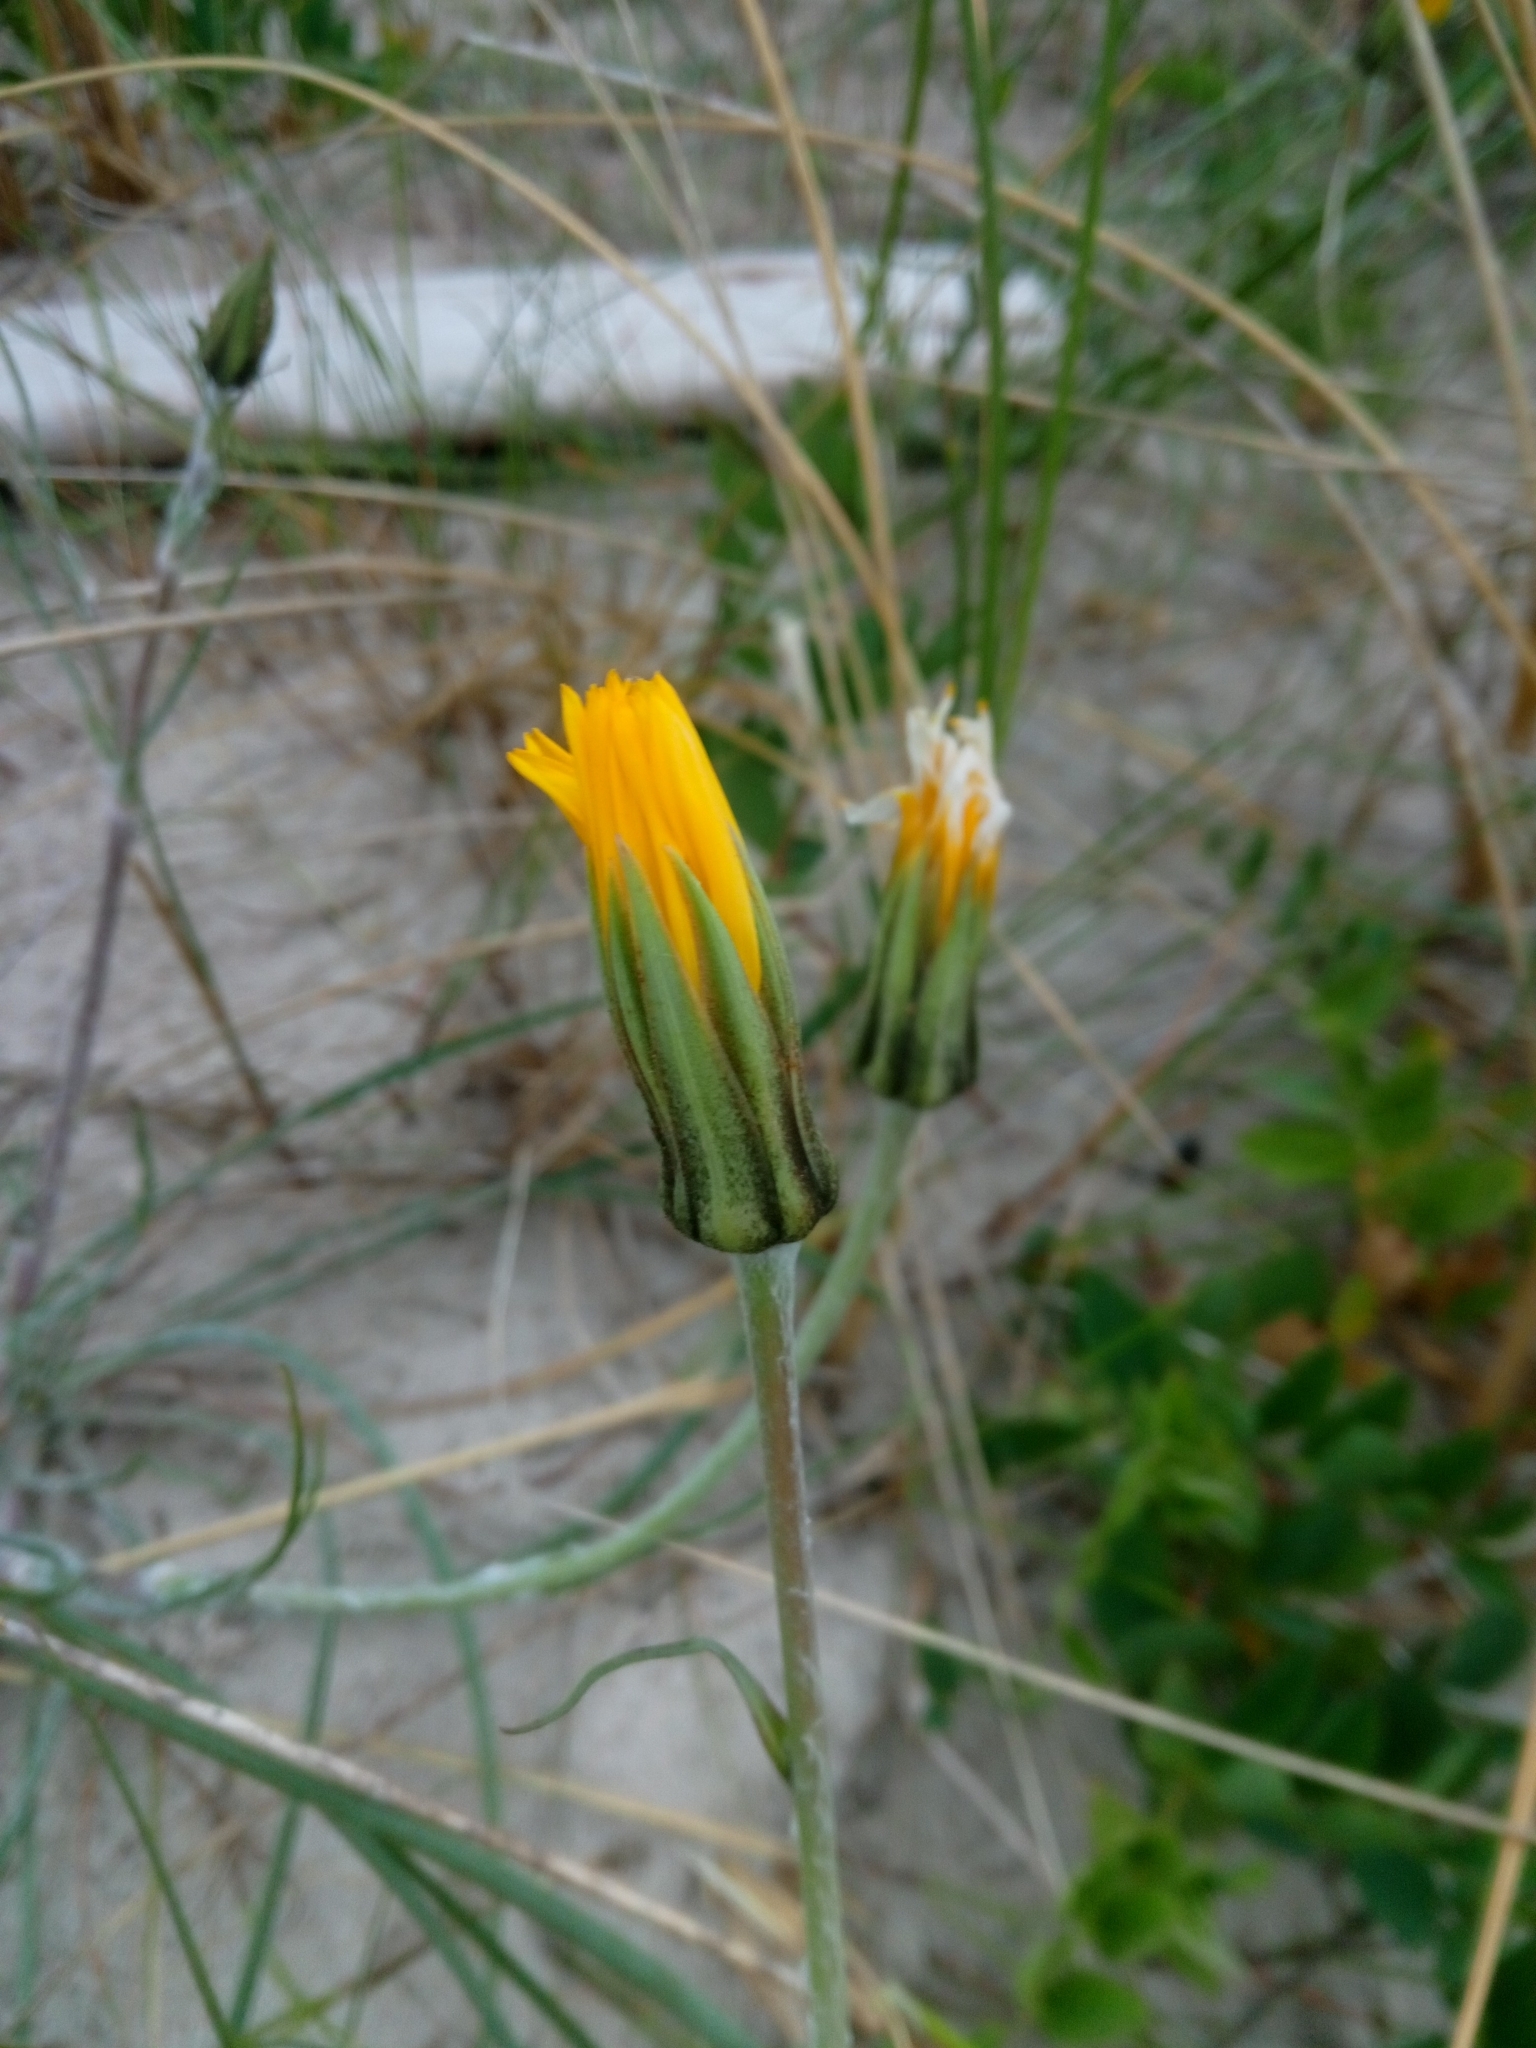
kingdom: Plantae
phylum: Tracheophyta
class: Magnoliopsida
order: Asterales
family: Asteraceae
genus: Tragopogon
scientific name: Tragopogon heterospermus
